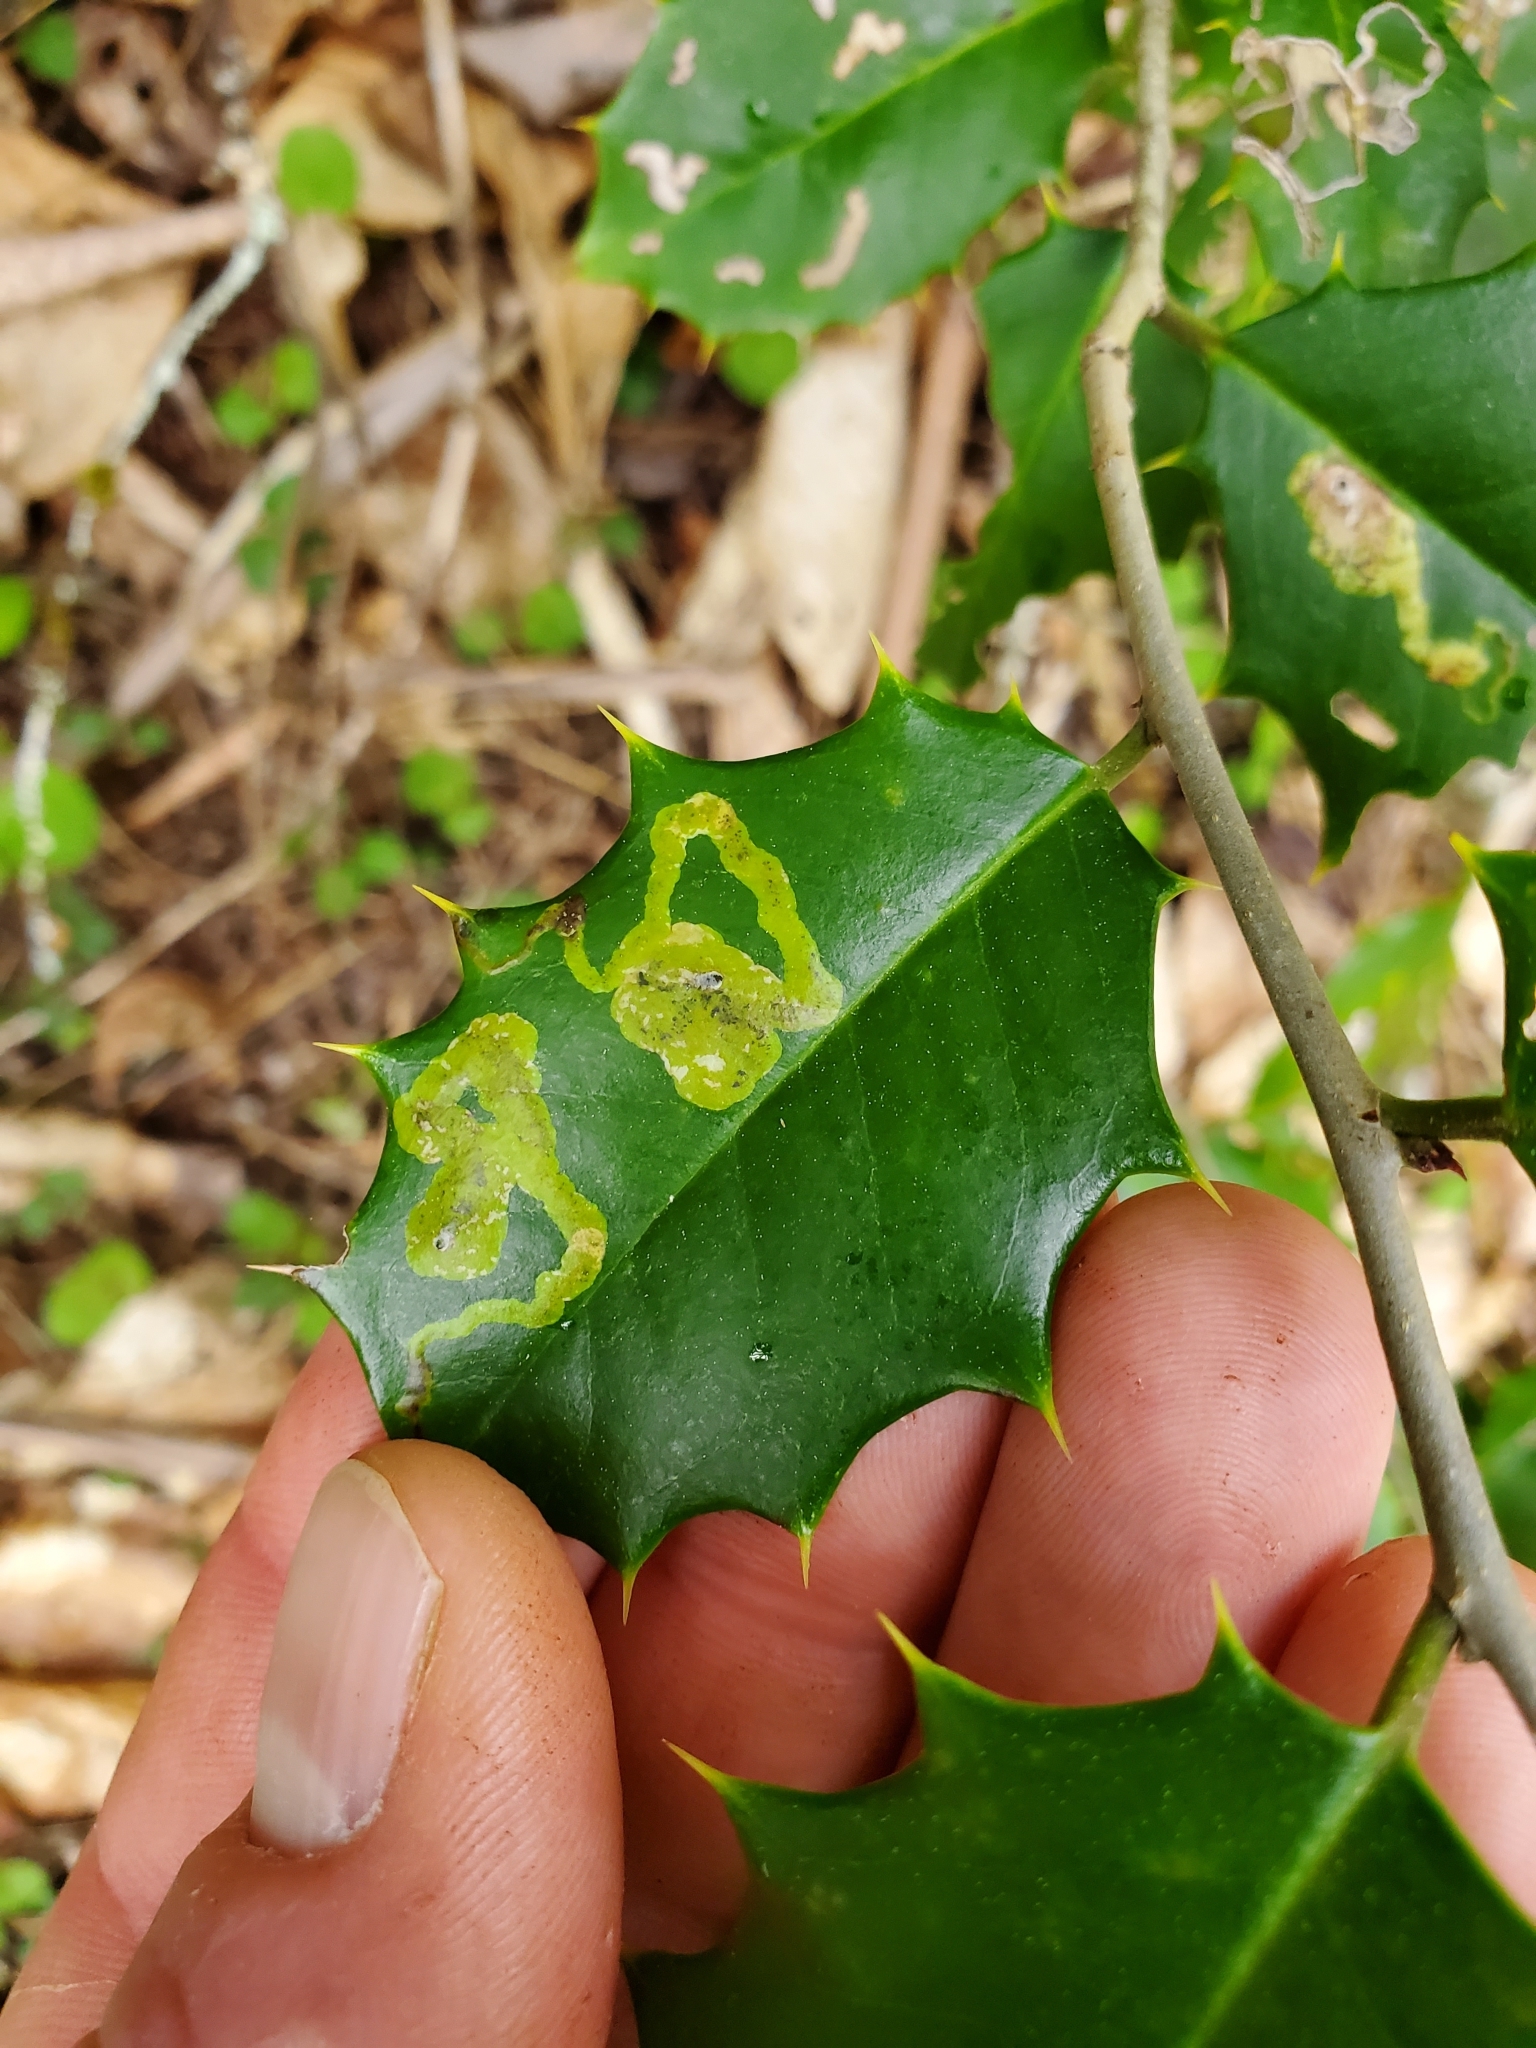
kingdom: Animalia
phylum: Arthropoda
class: Insecta
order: Diptera
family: Agromyzidae
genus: Phytomyza
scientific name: Phytomyza ilicicola
